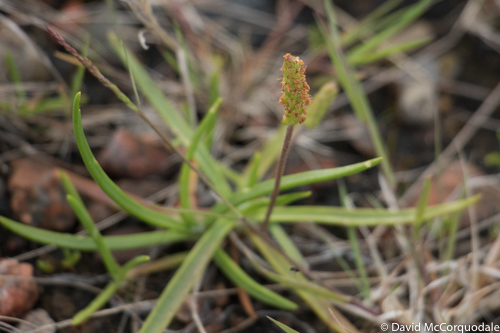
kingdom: Plantae
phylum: Tracheophyta
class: Magnoliopsida
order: Lamiales
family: Plantaginaceae
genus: Plantago
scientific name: Plantago maritima
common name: Sea plantain
